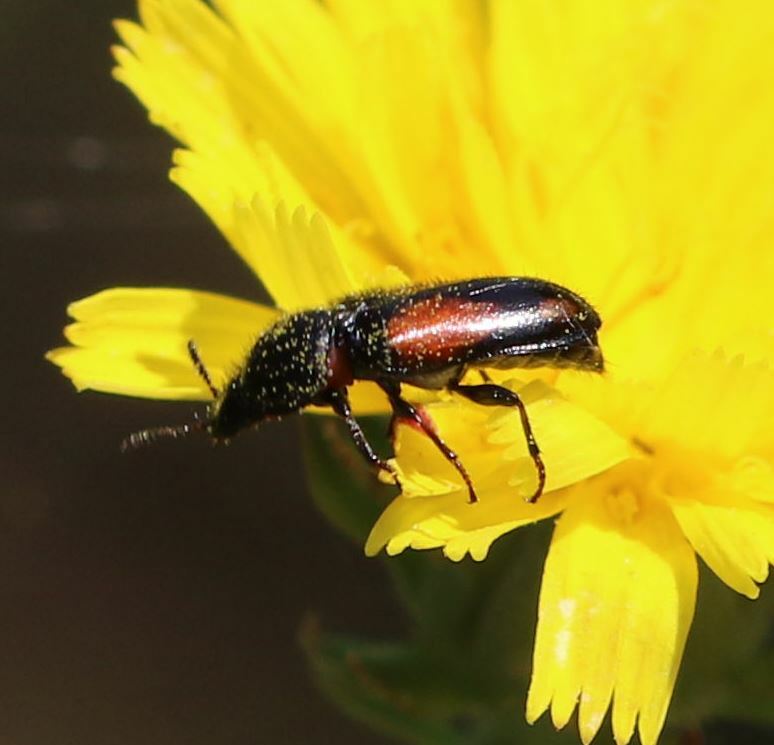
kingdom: Animalia
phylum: Arthropoda
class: Insecta
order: Coleoptera
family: Melyridae
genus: Divales
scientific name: Divales bipustulatus
